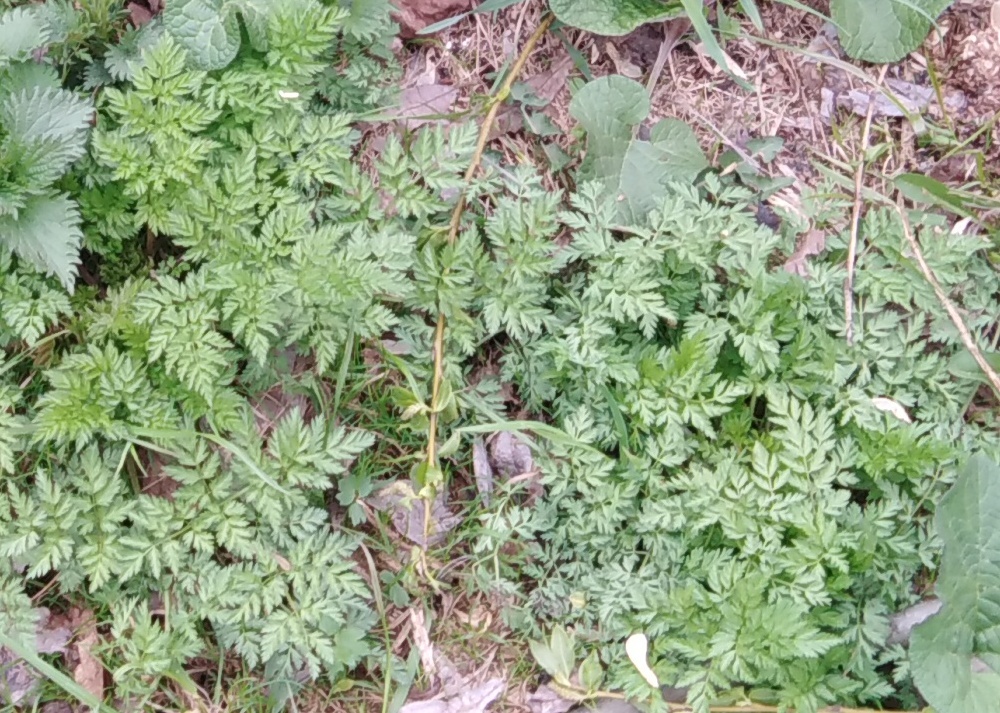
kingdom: Plantae
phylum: Tracheophyta
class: Magnoliopsida
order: Apiales
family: Apiaceae
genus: Anthriscus
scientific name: Anthriscus sylvestris
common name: Cow parsley
